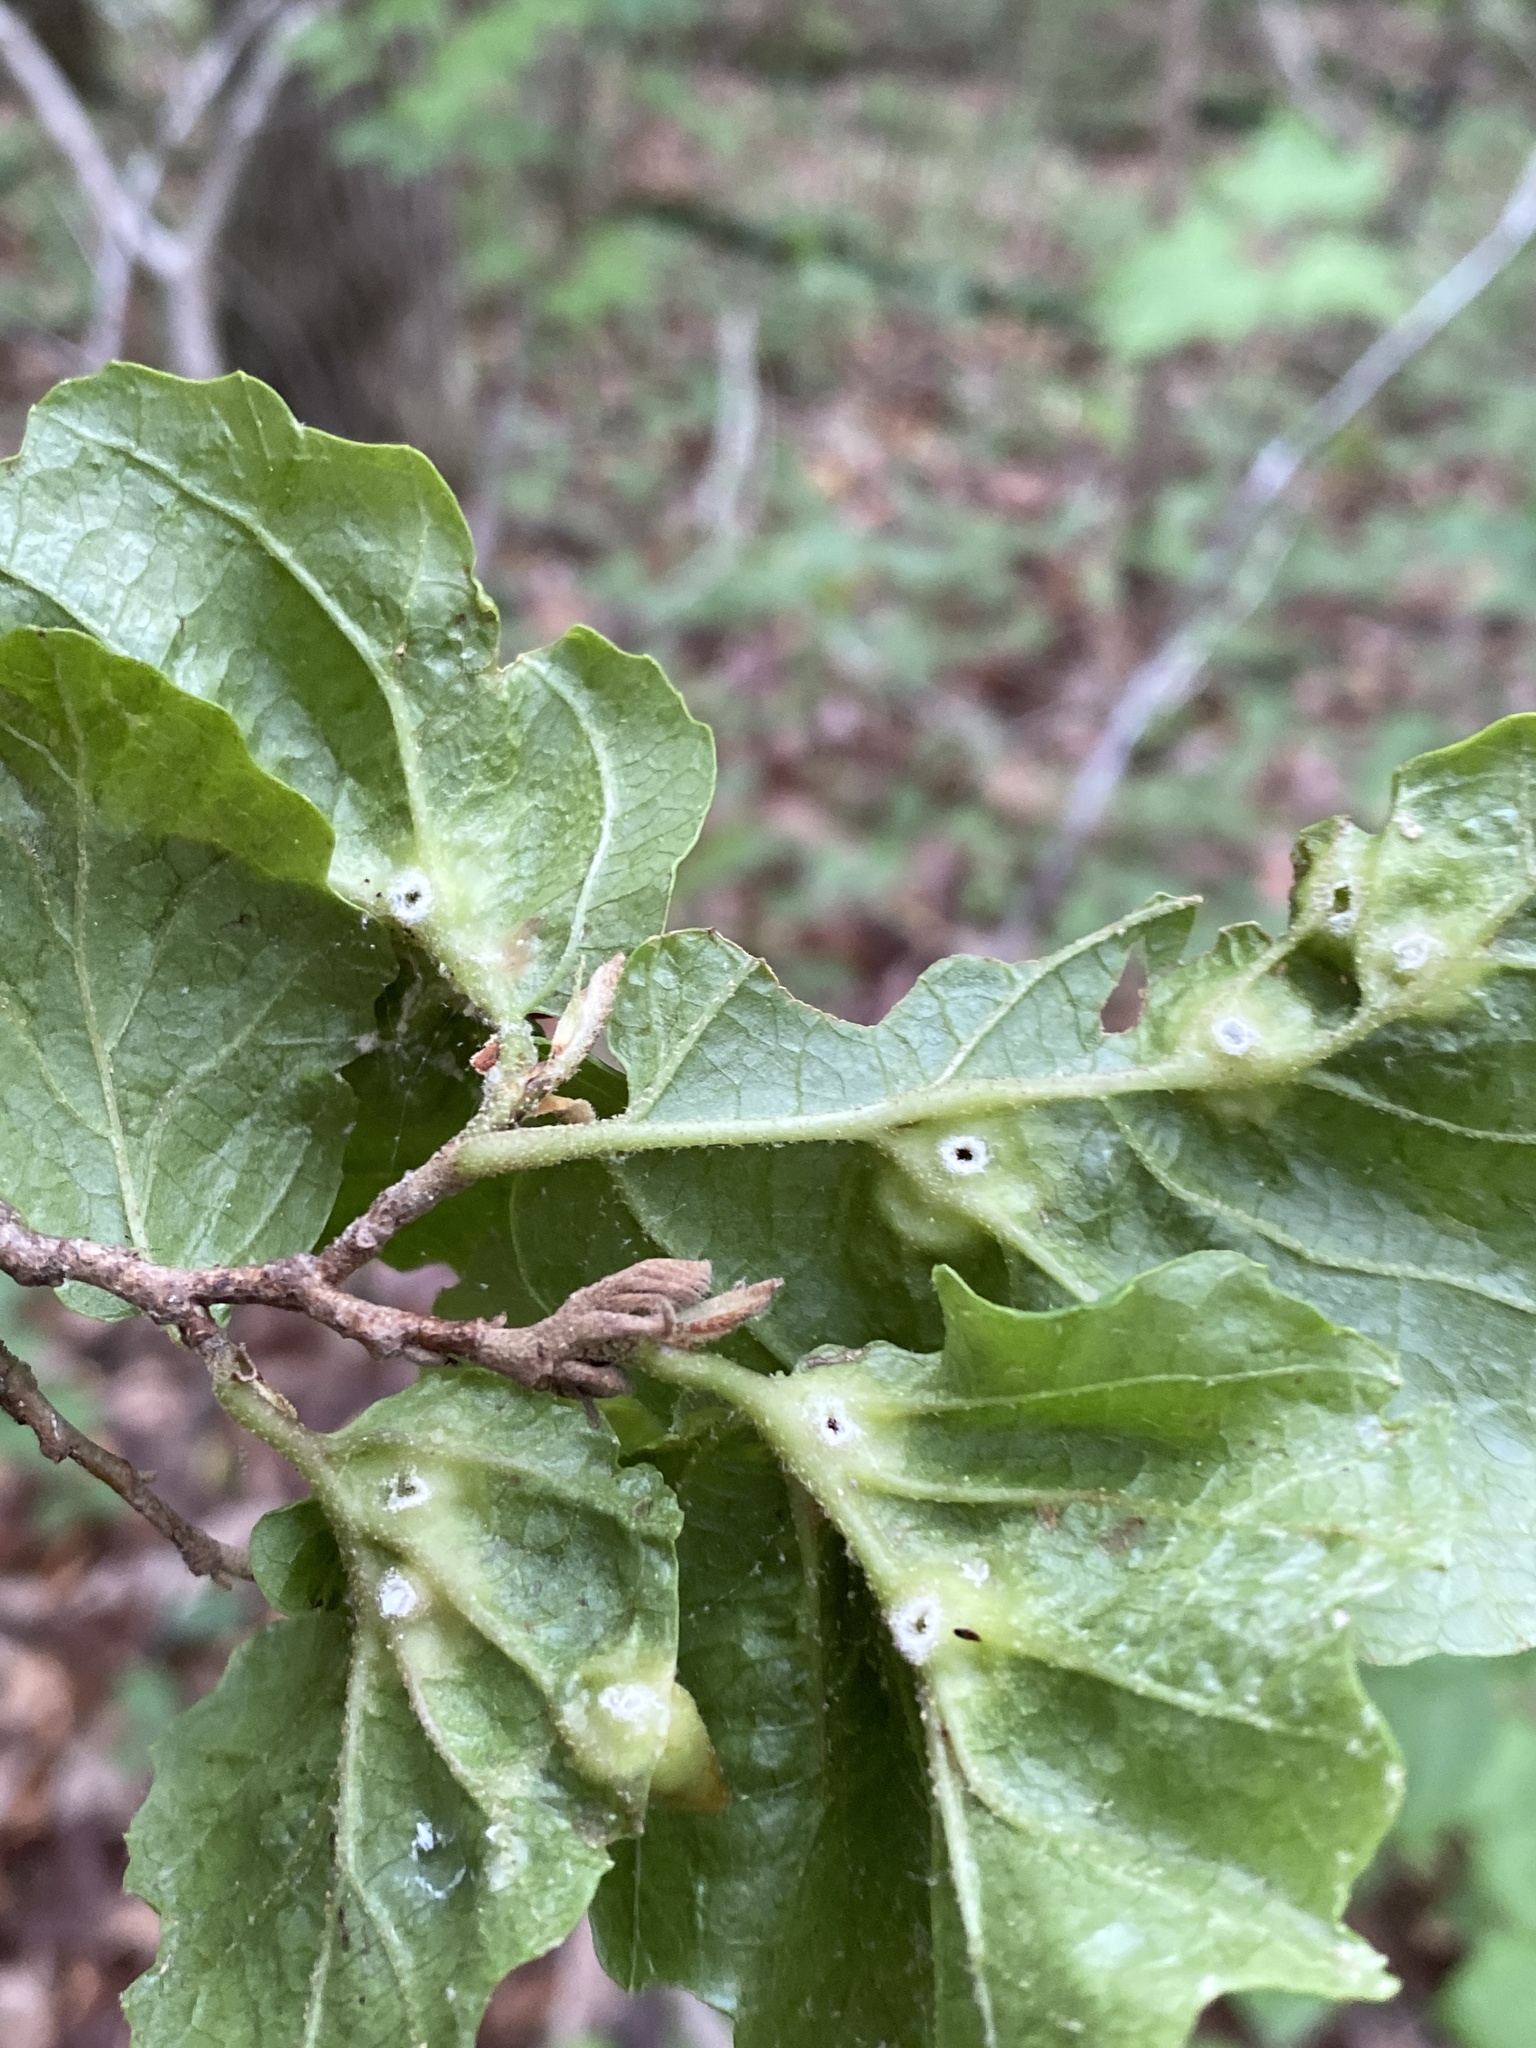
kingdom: Animalia
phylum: Arthropoda
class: Insecta
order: Hemiptera
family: Aphididae
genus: Hormaphis
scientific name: Hormaphis hamamelidis
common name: Witch-hazel cone gall aphid
